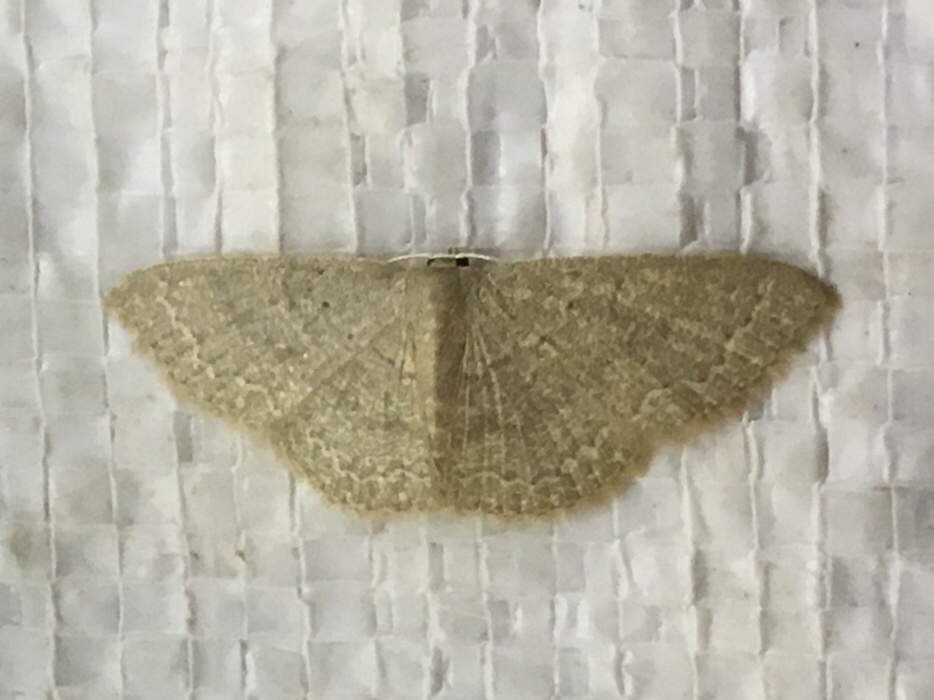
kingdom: Animalia
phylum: Arthropoda
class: Insecta
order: Lepidoptera
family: Geometridae
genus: Pleuroprucha
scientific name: Pleuroprucha insulsaria
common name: Common tan wave
